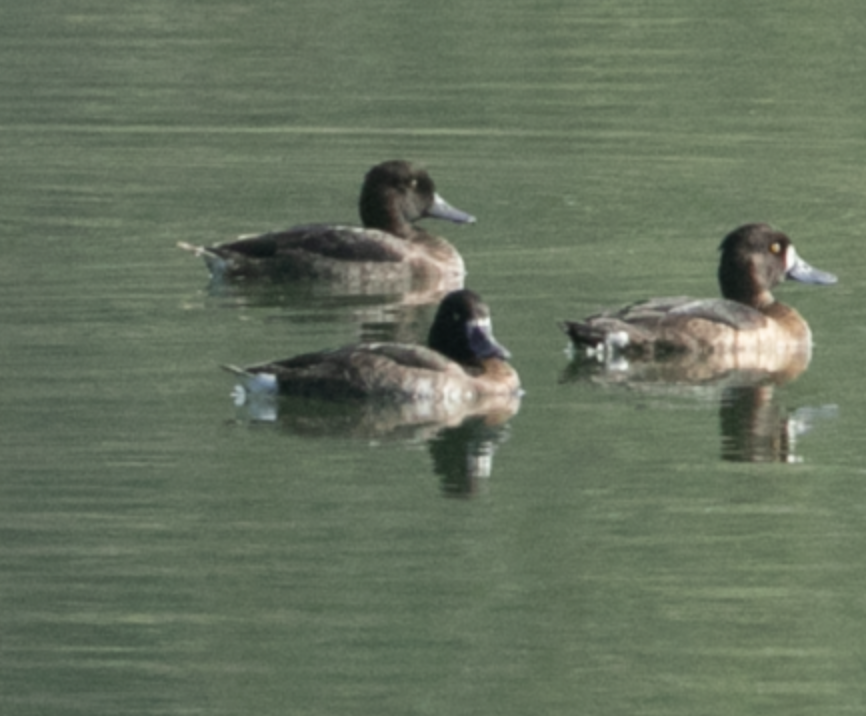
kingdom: Animalia
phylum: Chordata
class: Aves
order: Anseriformes
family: Anatidae
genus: Aythya
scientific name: Aythya fuligula
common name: Tufted duck
